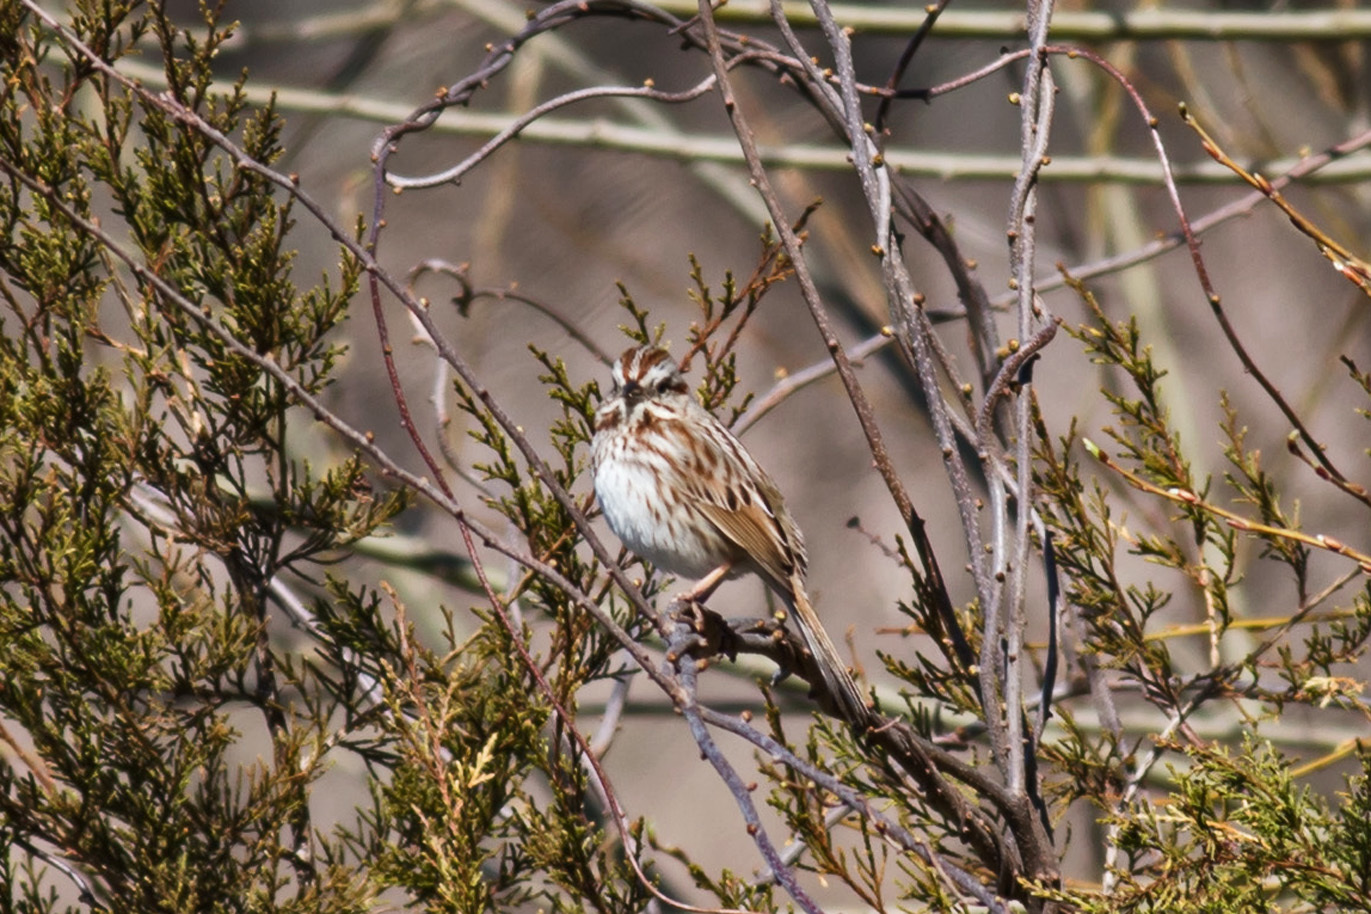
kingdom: Animalia
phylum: Chordata
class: Aves
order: Passeriformes
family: Passerellidae
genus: Melospiza
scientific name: Melospiza melodia
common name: Song sparrow
